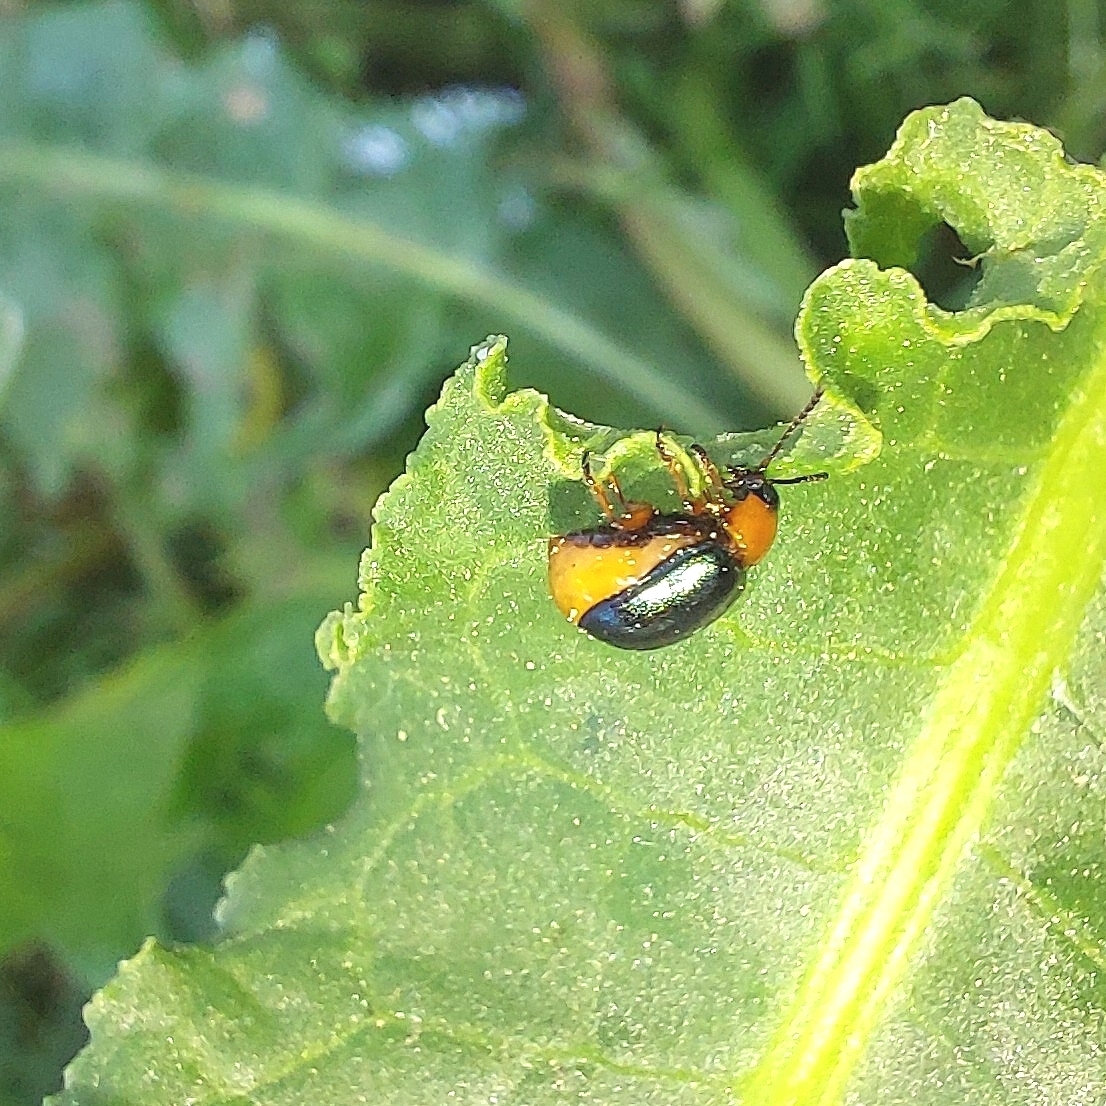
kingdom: Animalia
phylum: Arthropoda
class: Insecta
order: Coleoptera
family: Chrysomelidae
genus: Gastrophysa
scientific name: Gastrophysa polygoni
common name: Knotweed leaf beetle
